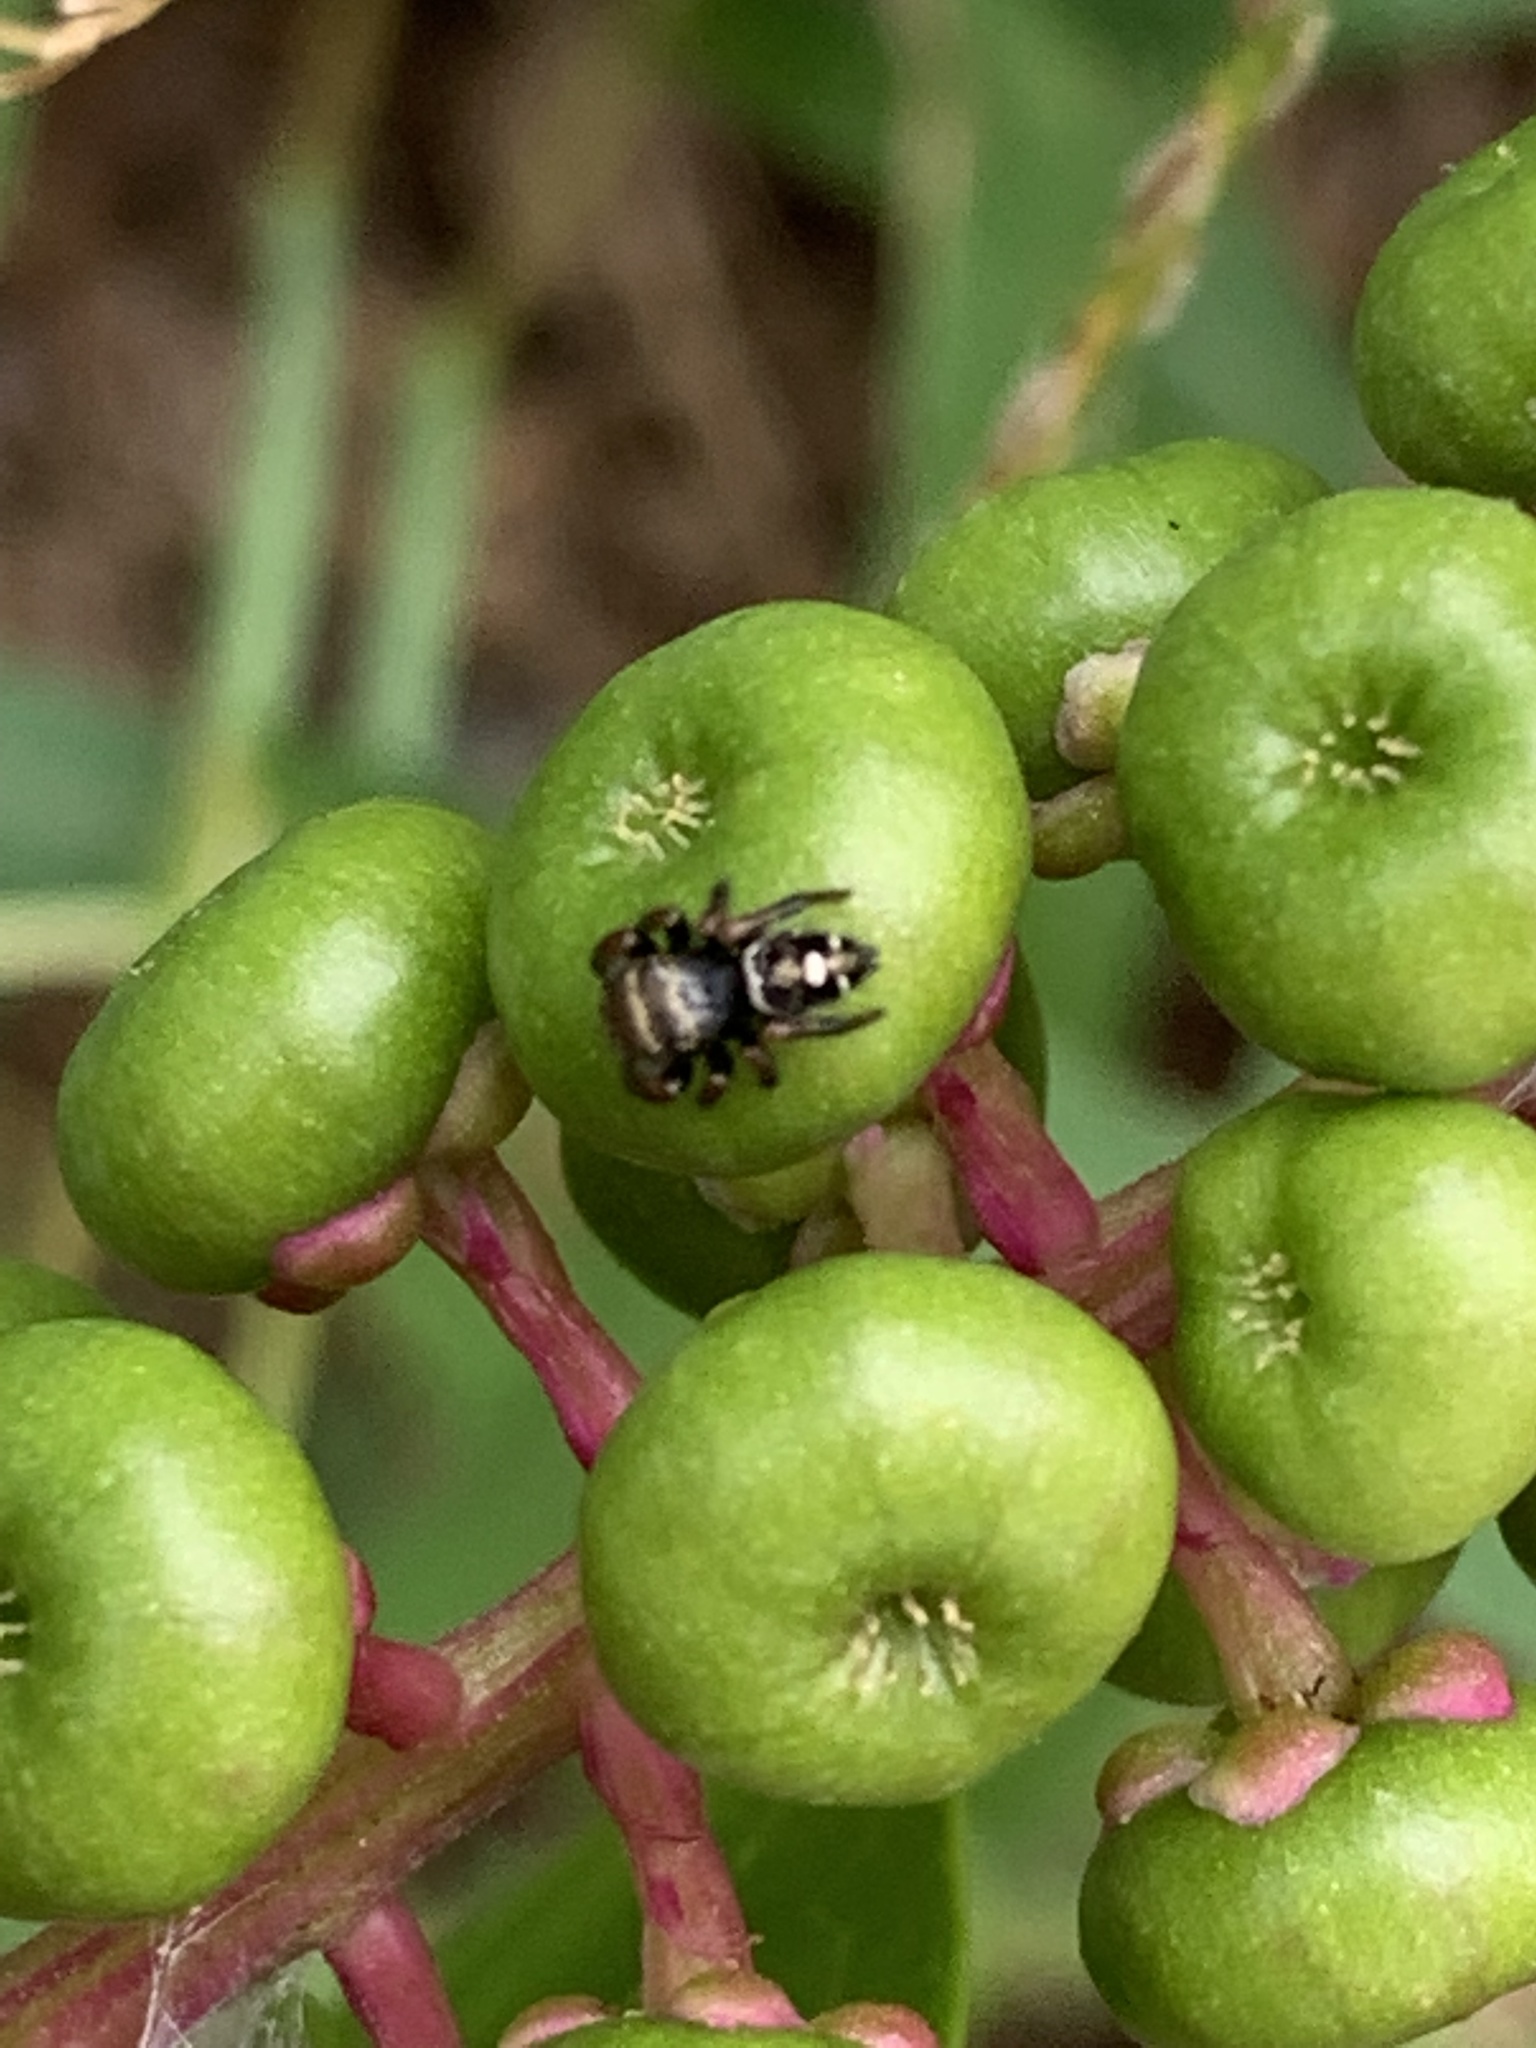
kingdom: Animalia
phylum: Arthropoda
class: Arachnida
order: Araneae
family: Salticidae
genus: Phidippus
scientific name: Phidippus audax
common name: Bold jumper
